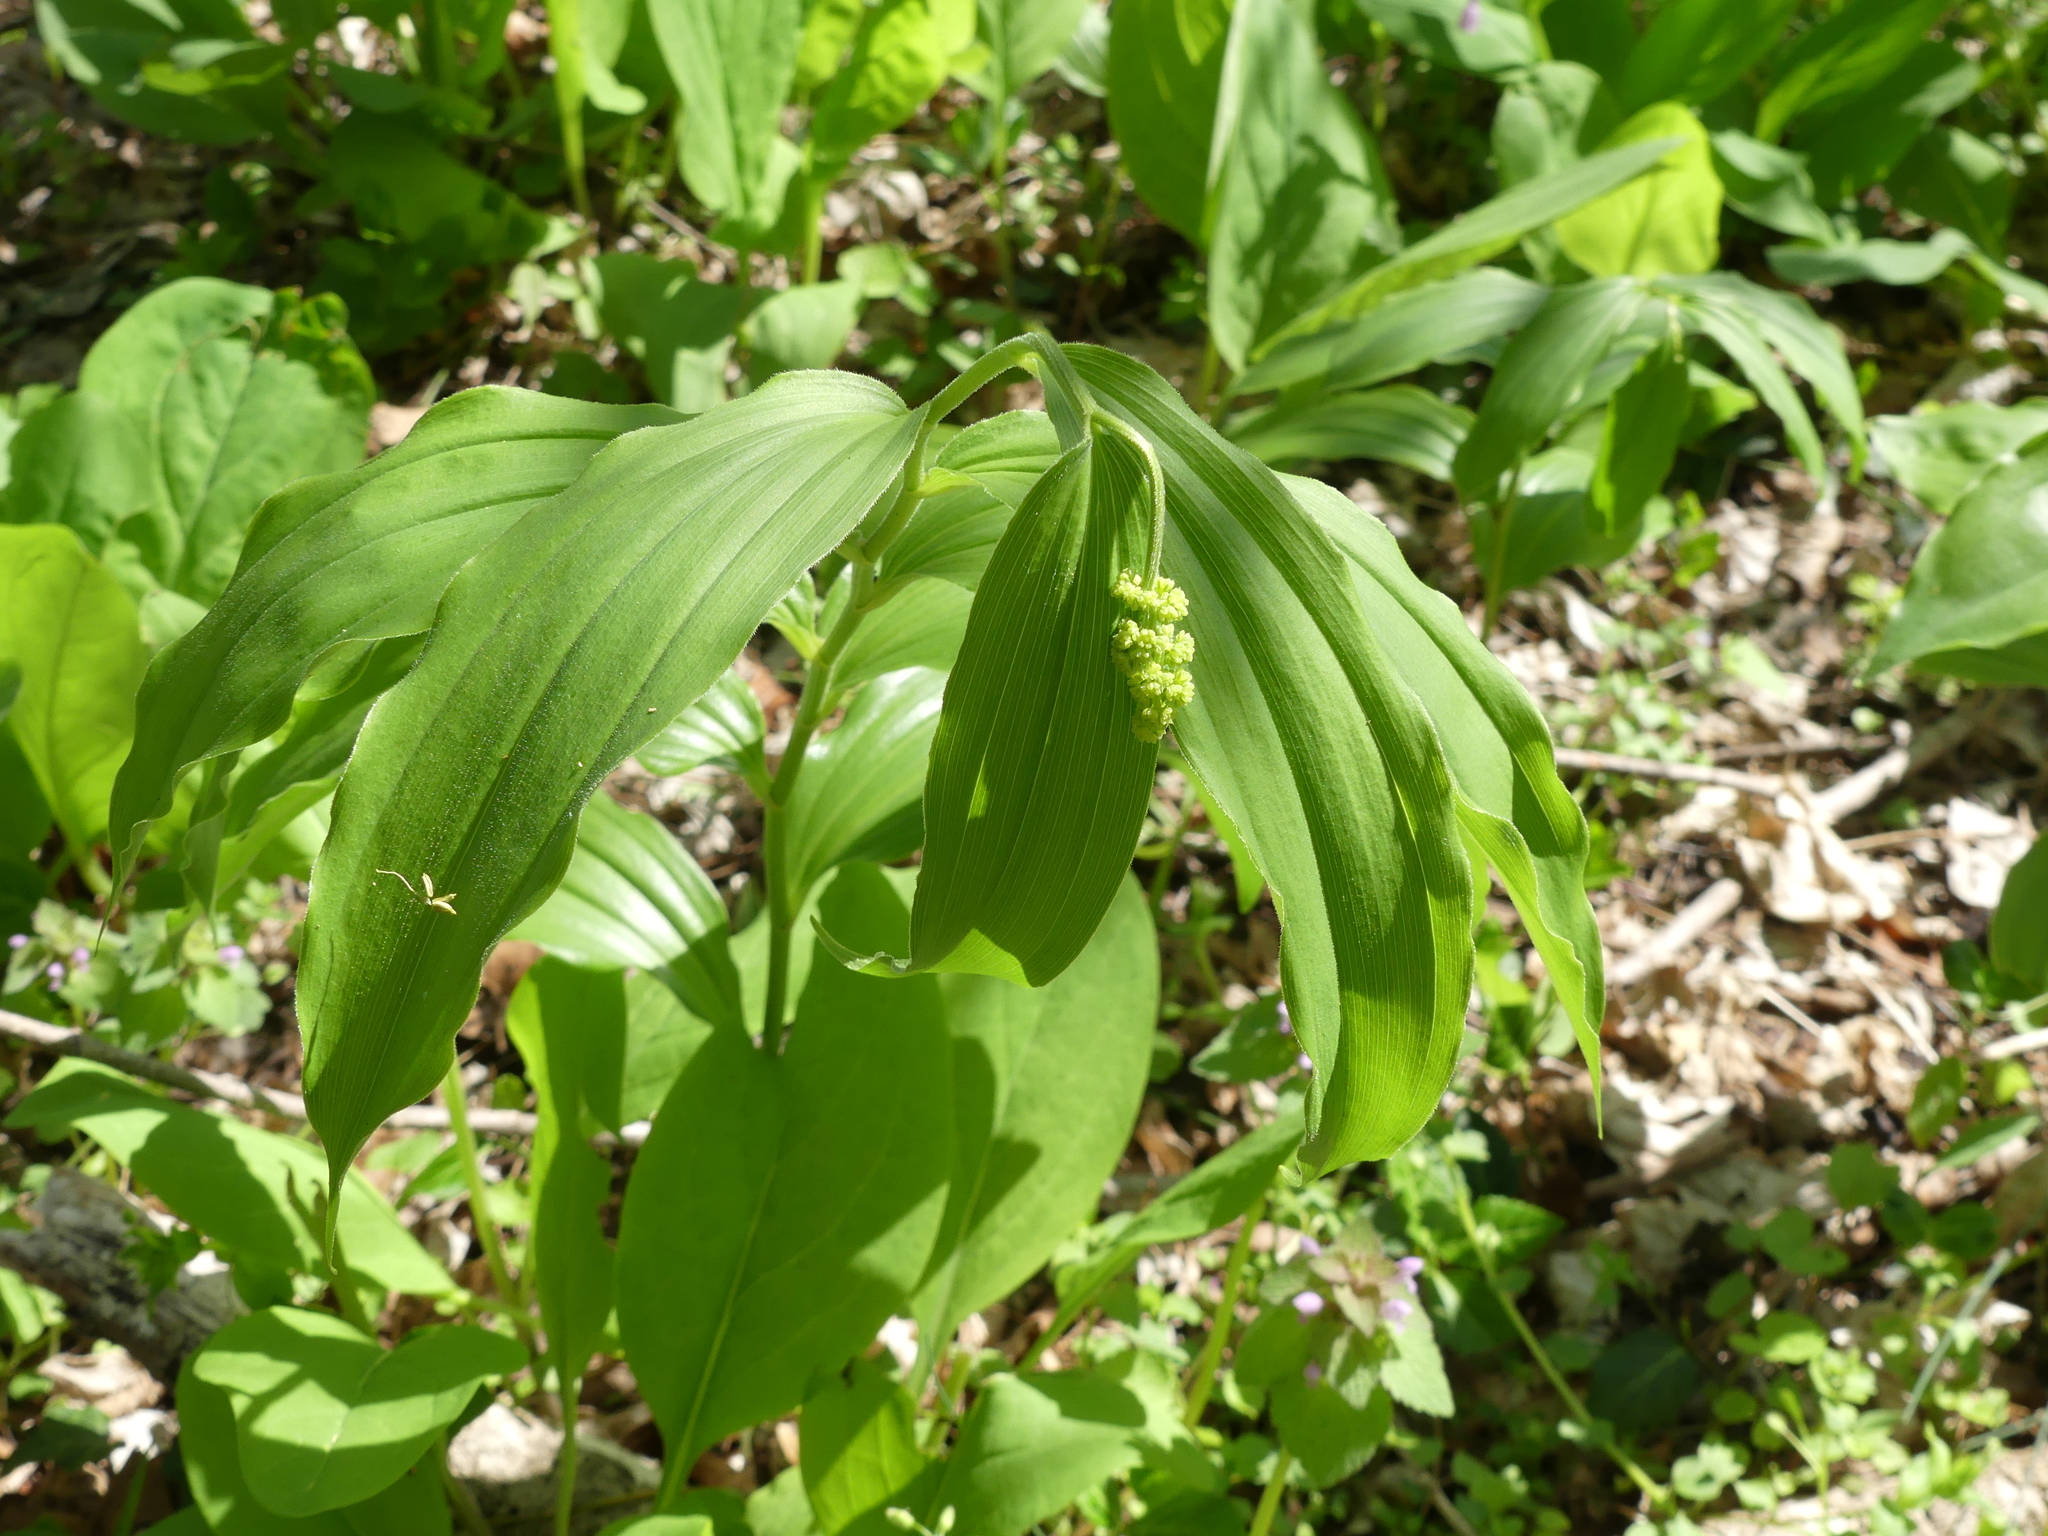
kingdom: Plantae
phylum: Tracheophyta
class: Liliopsida
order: Asparagales
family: Asparagaceae
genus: Maianthemum
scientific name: Maianthemum racemosum
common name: False spikenard
